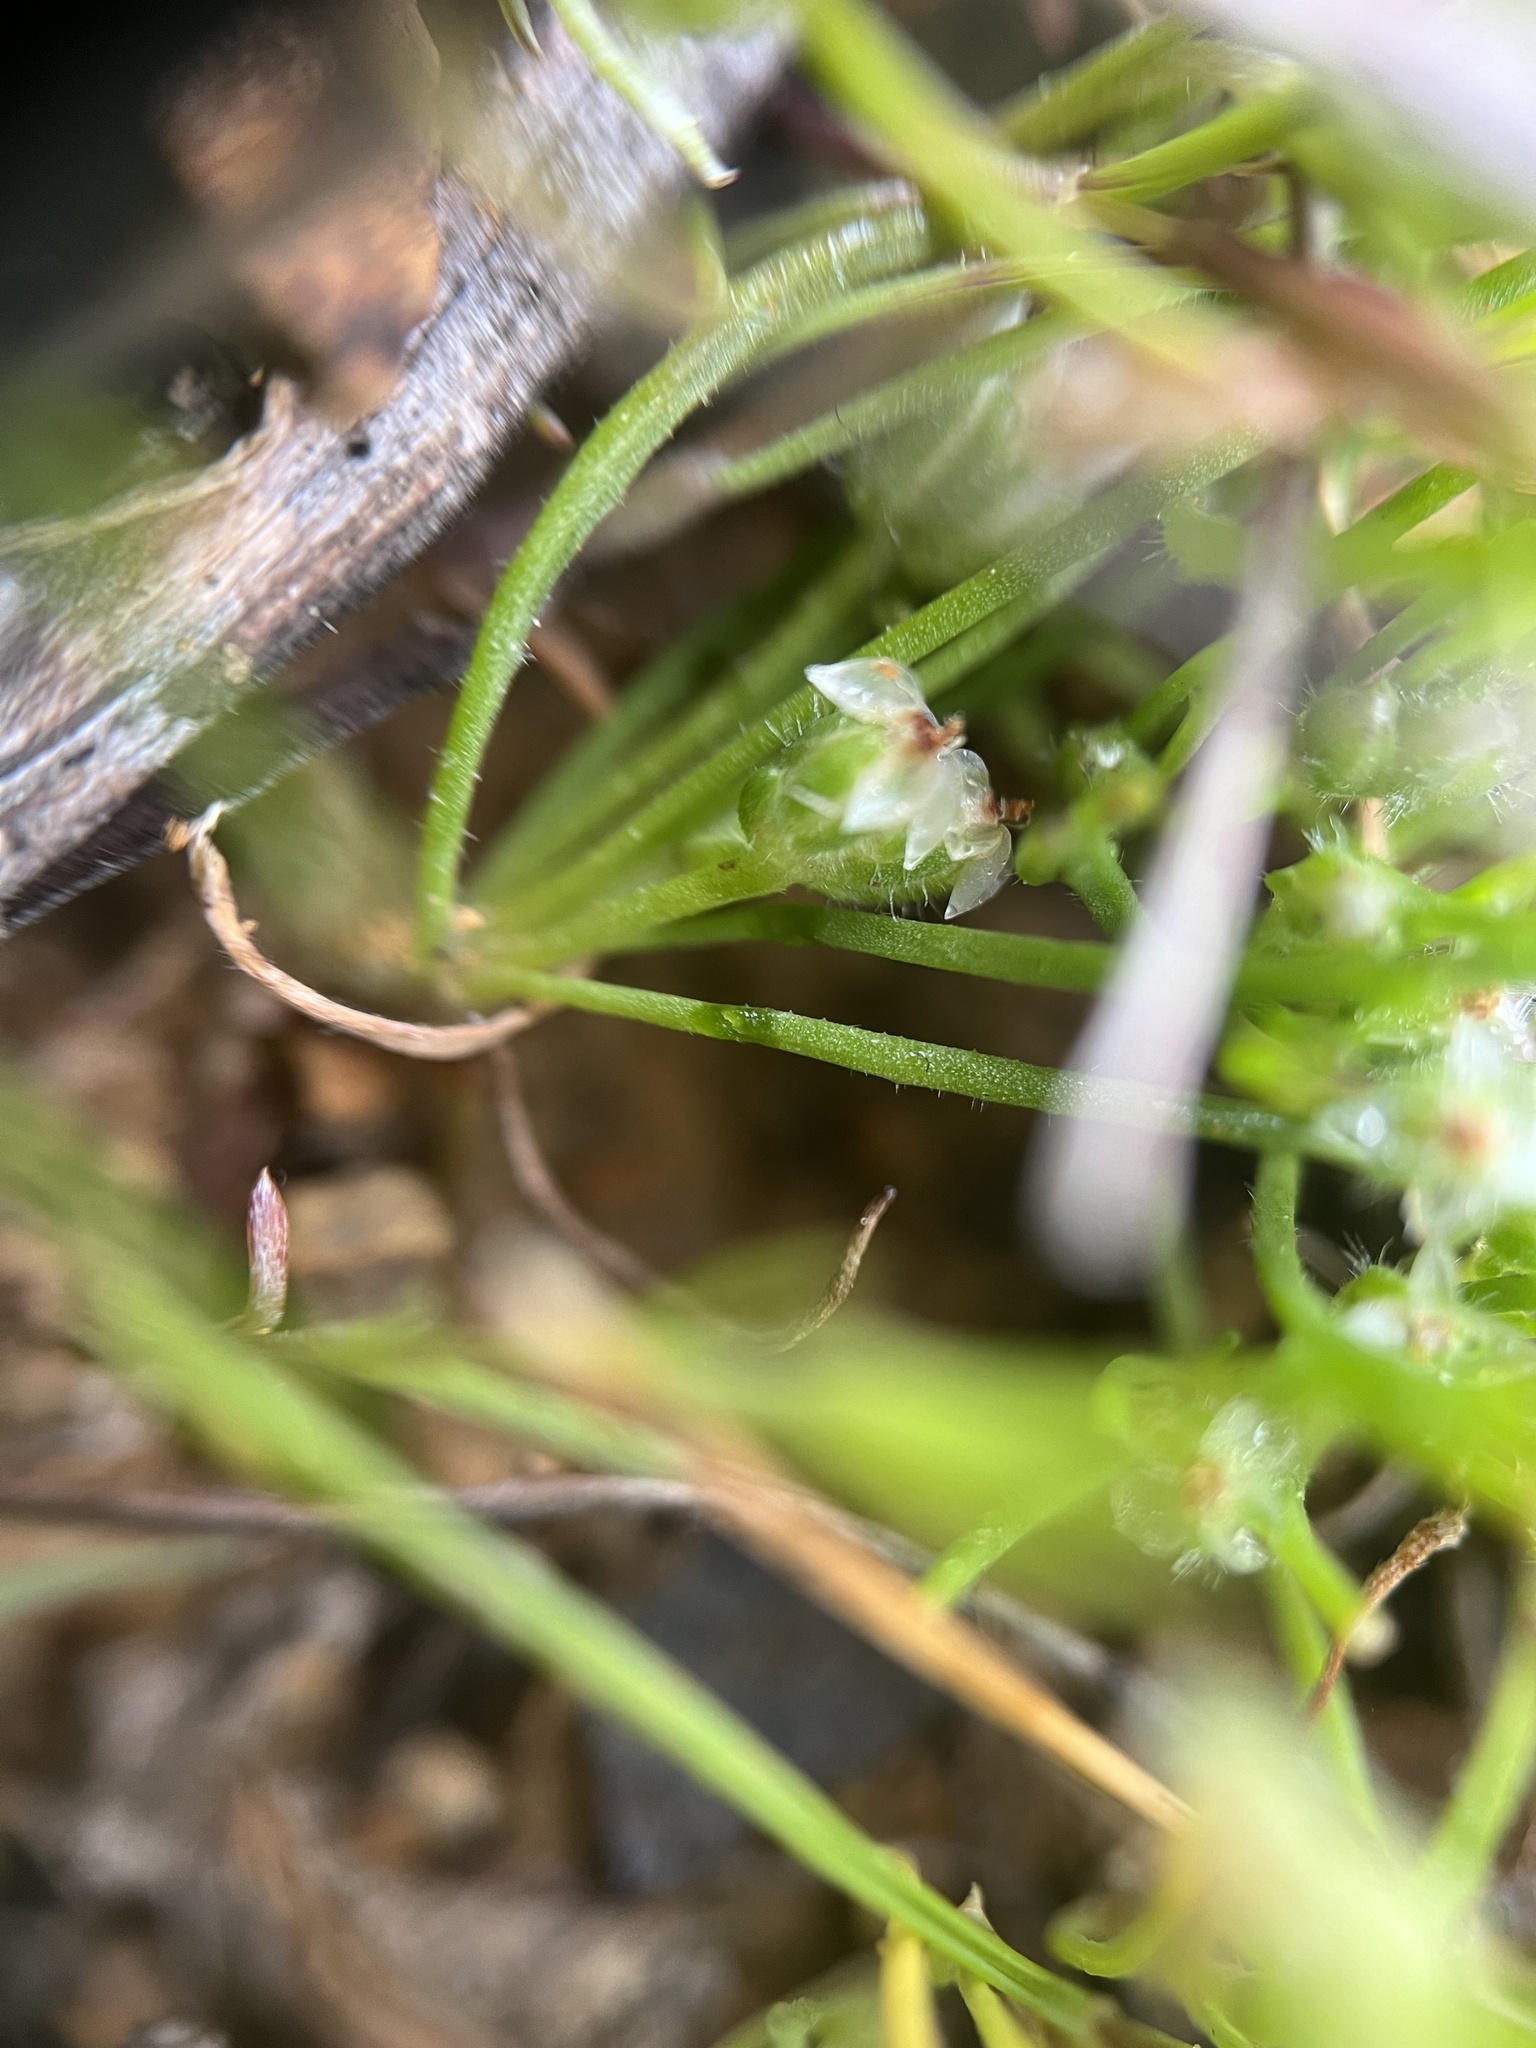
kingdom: Plantae
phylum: Tracheophyta
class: Magnoliopsida
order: Lamiales
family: Plantaginaceae
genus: Plantago
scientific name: Plantago erecta
